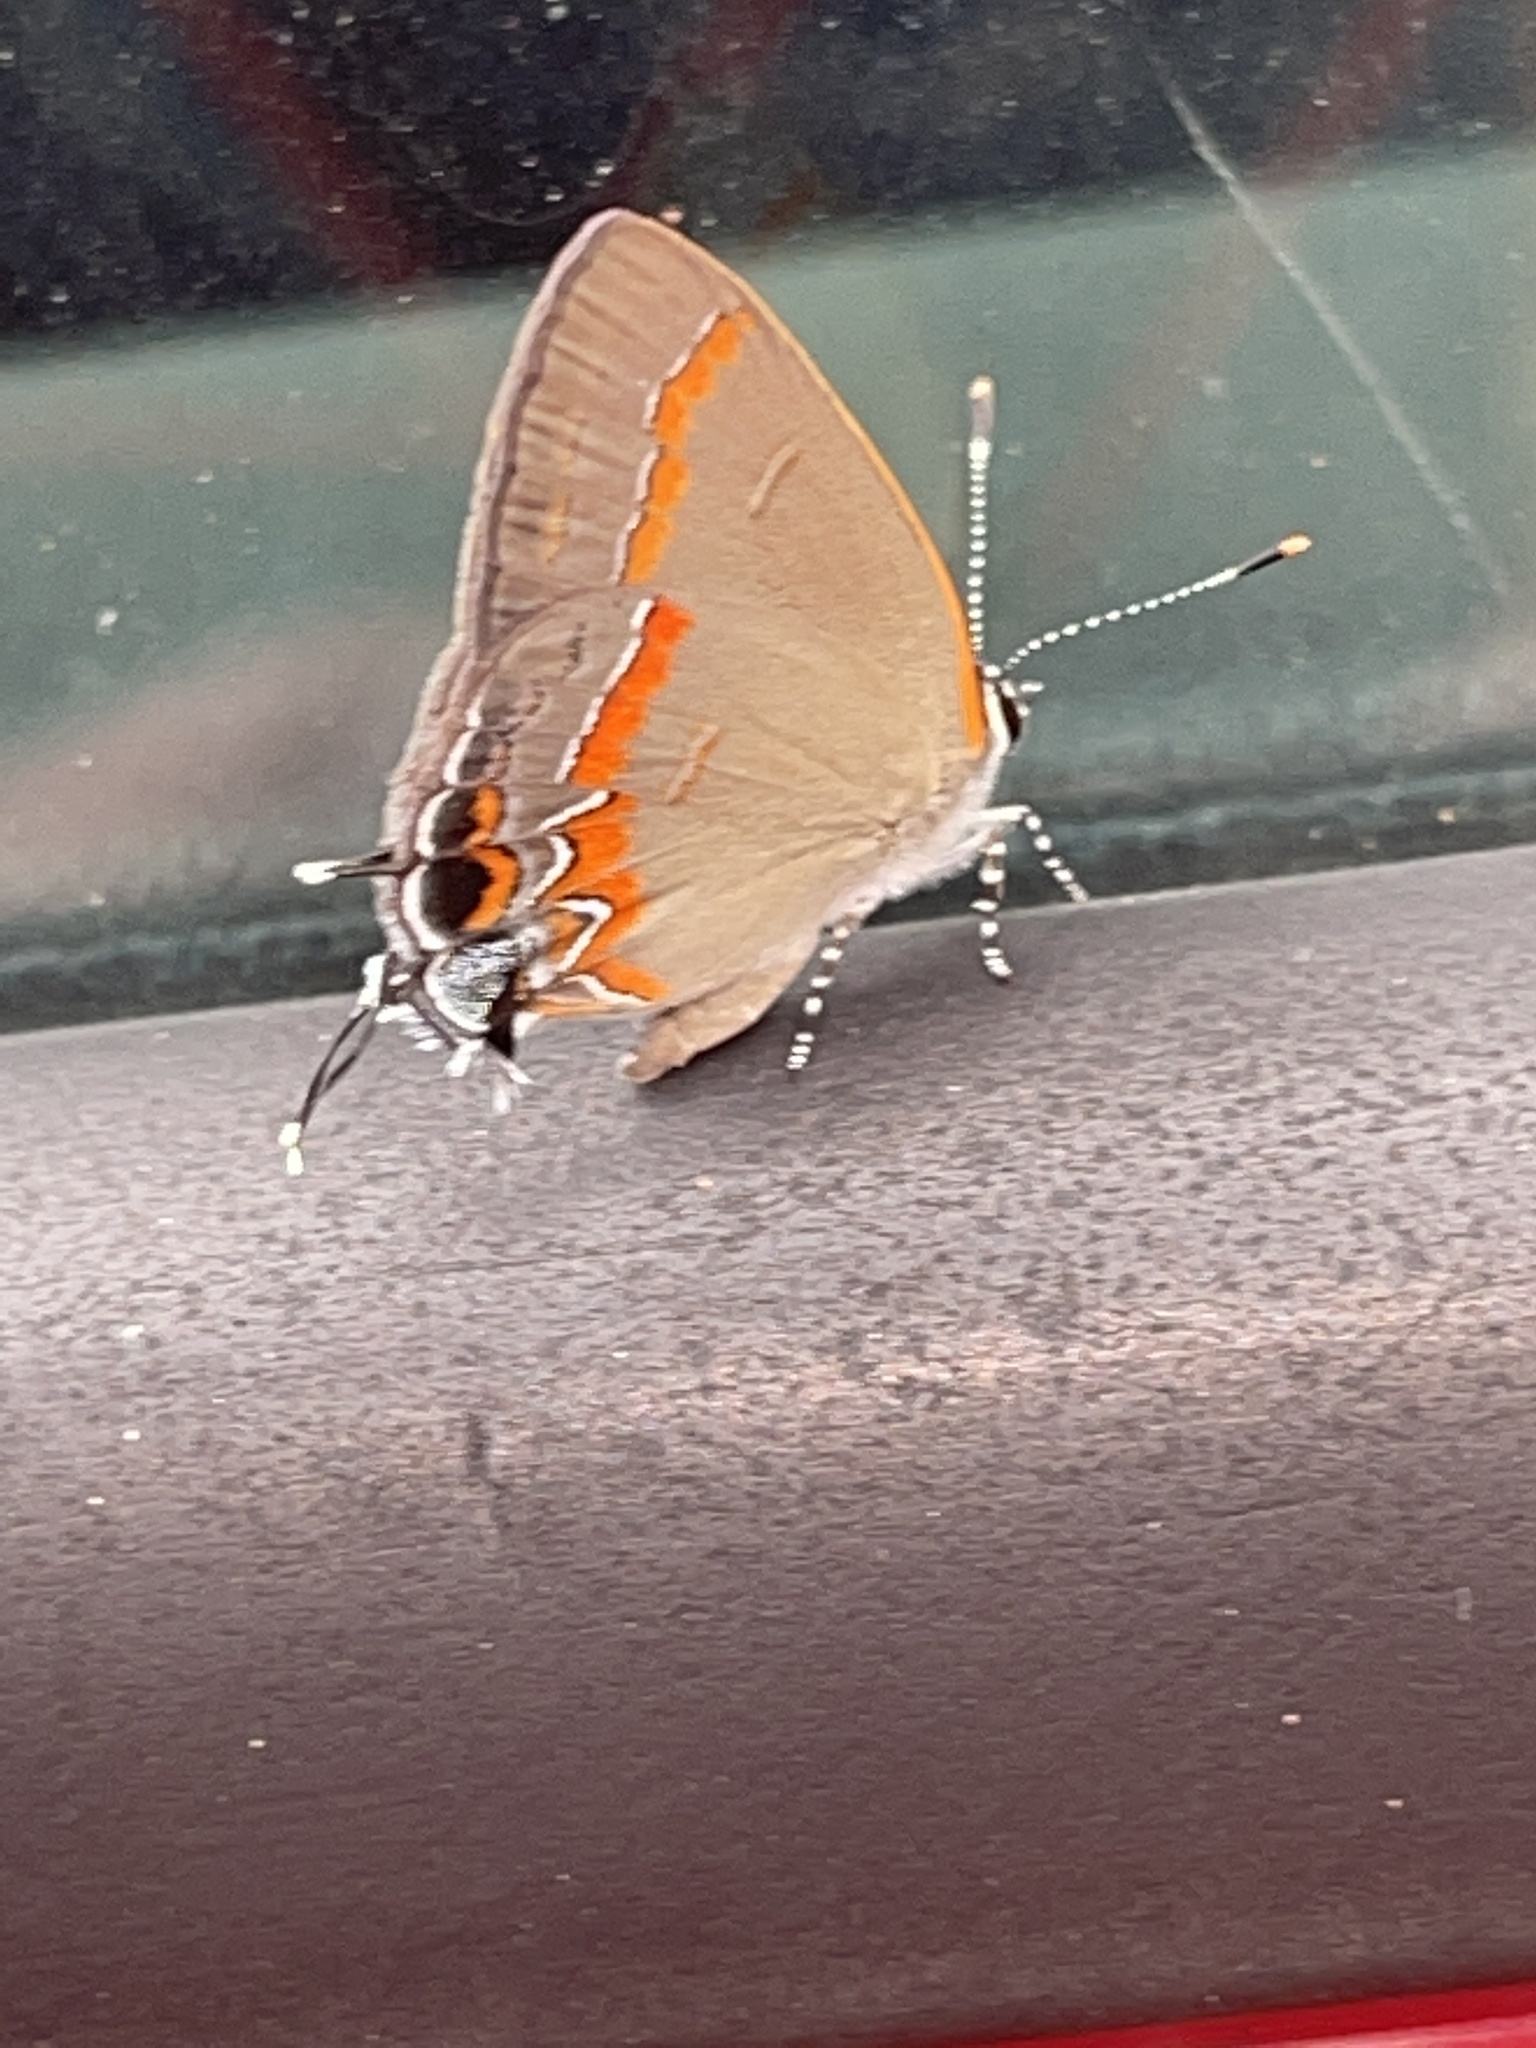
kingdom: Animalia
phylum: Arthropoda
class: Insecta
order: Lepidoptera
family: Lycaenidae
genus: Calycopis
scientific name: Calycopis cecrops
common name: Red-banded hairstreak
